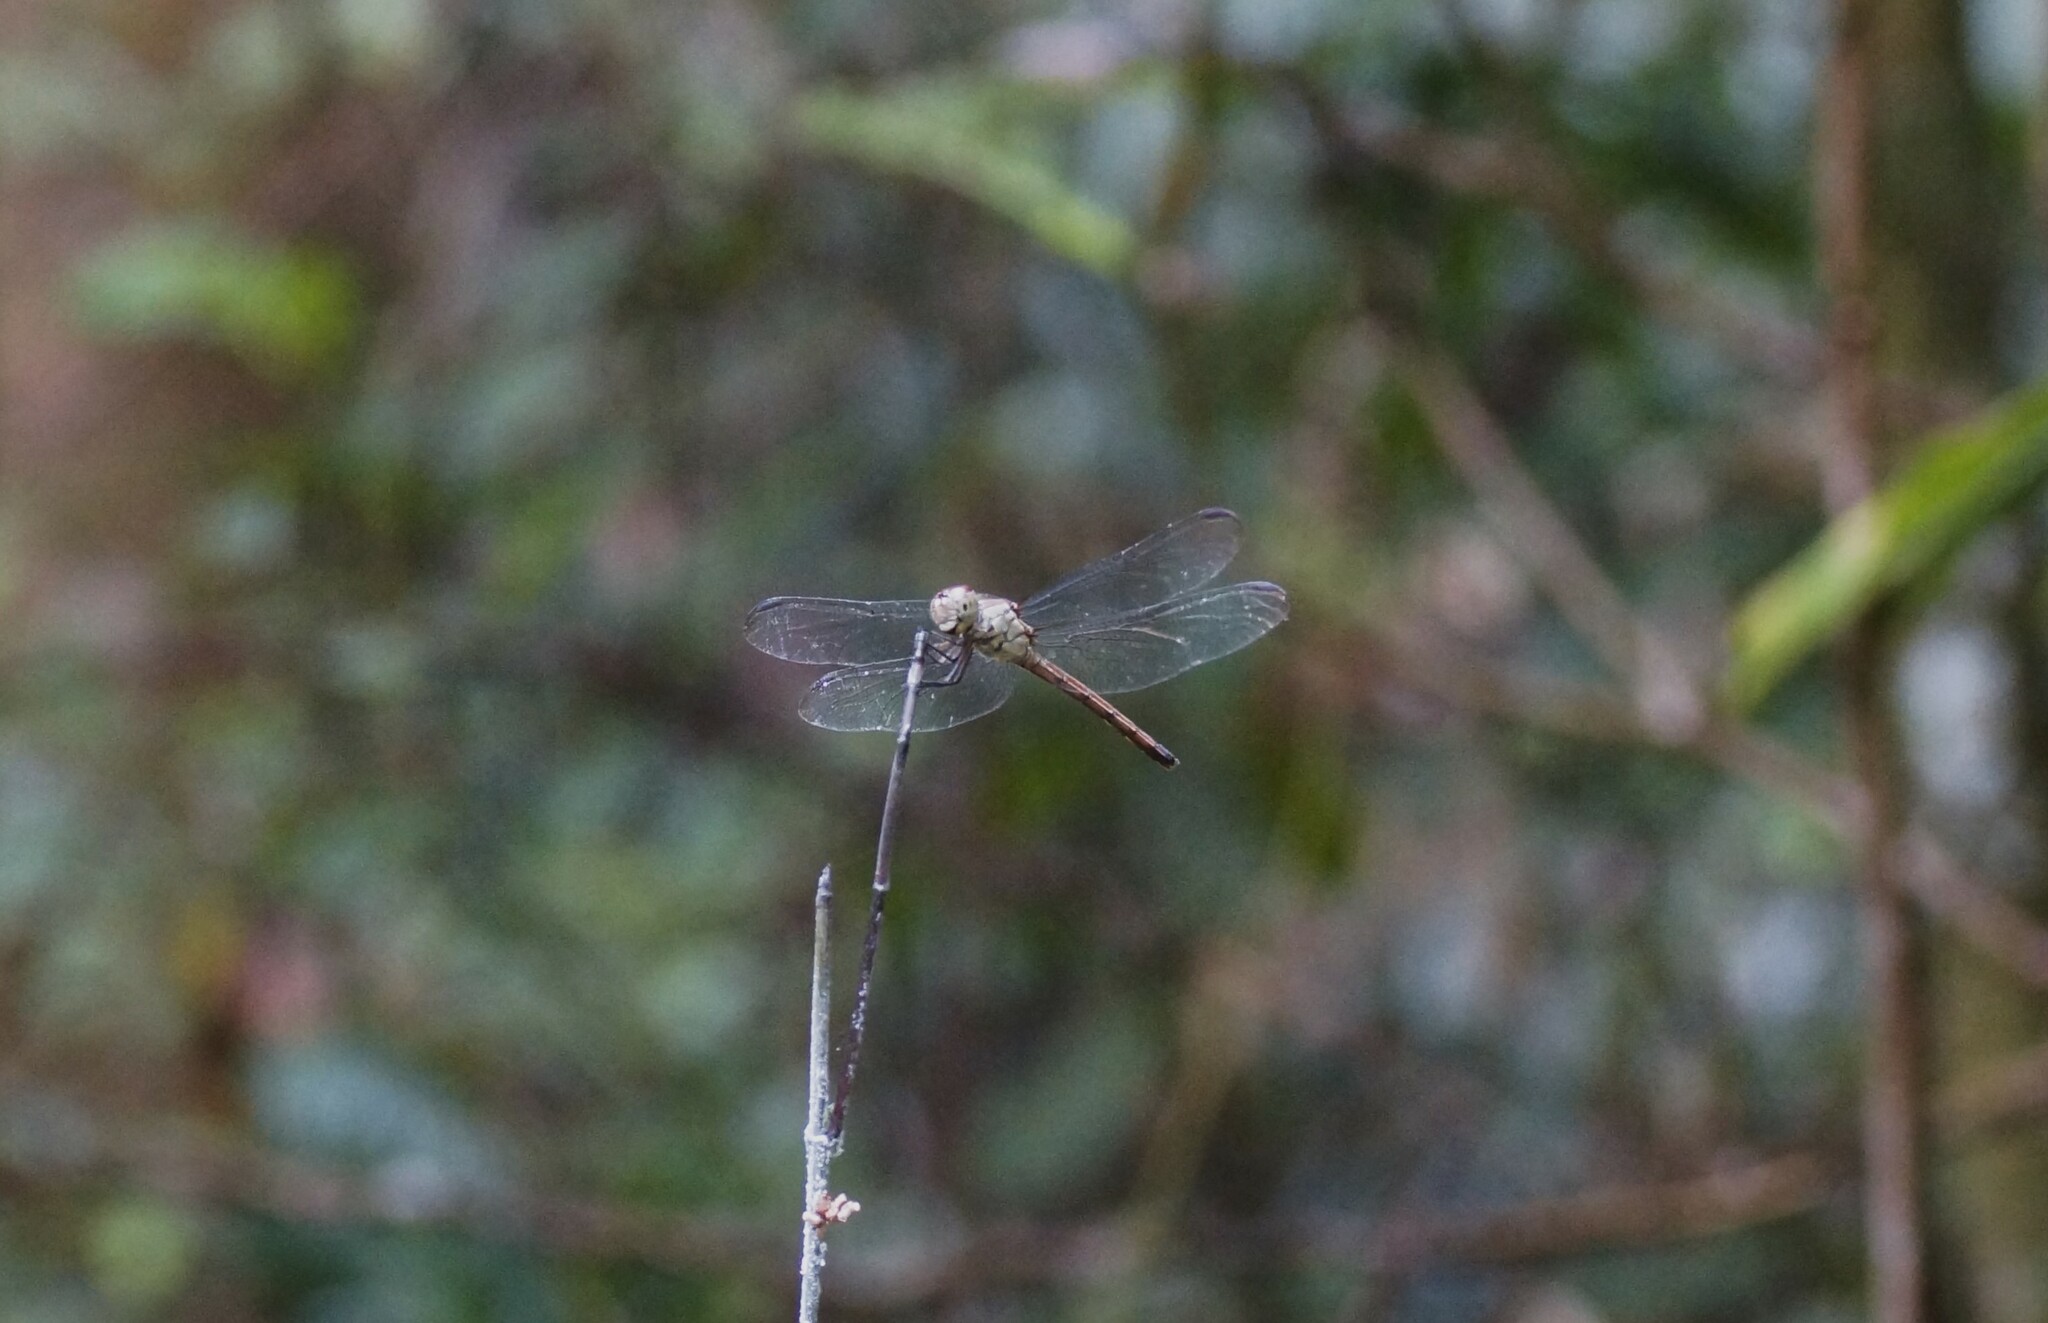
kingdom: Animalia
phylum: Arthropoda
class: Insecta
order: Odonata
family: Libellulidae
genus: Lathrecista
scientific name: Lathrecista asiatica
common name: Scarlet grenadier
